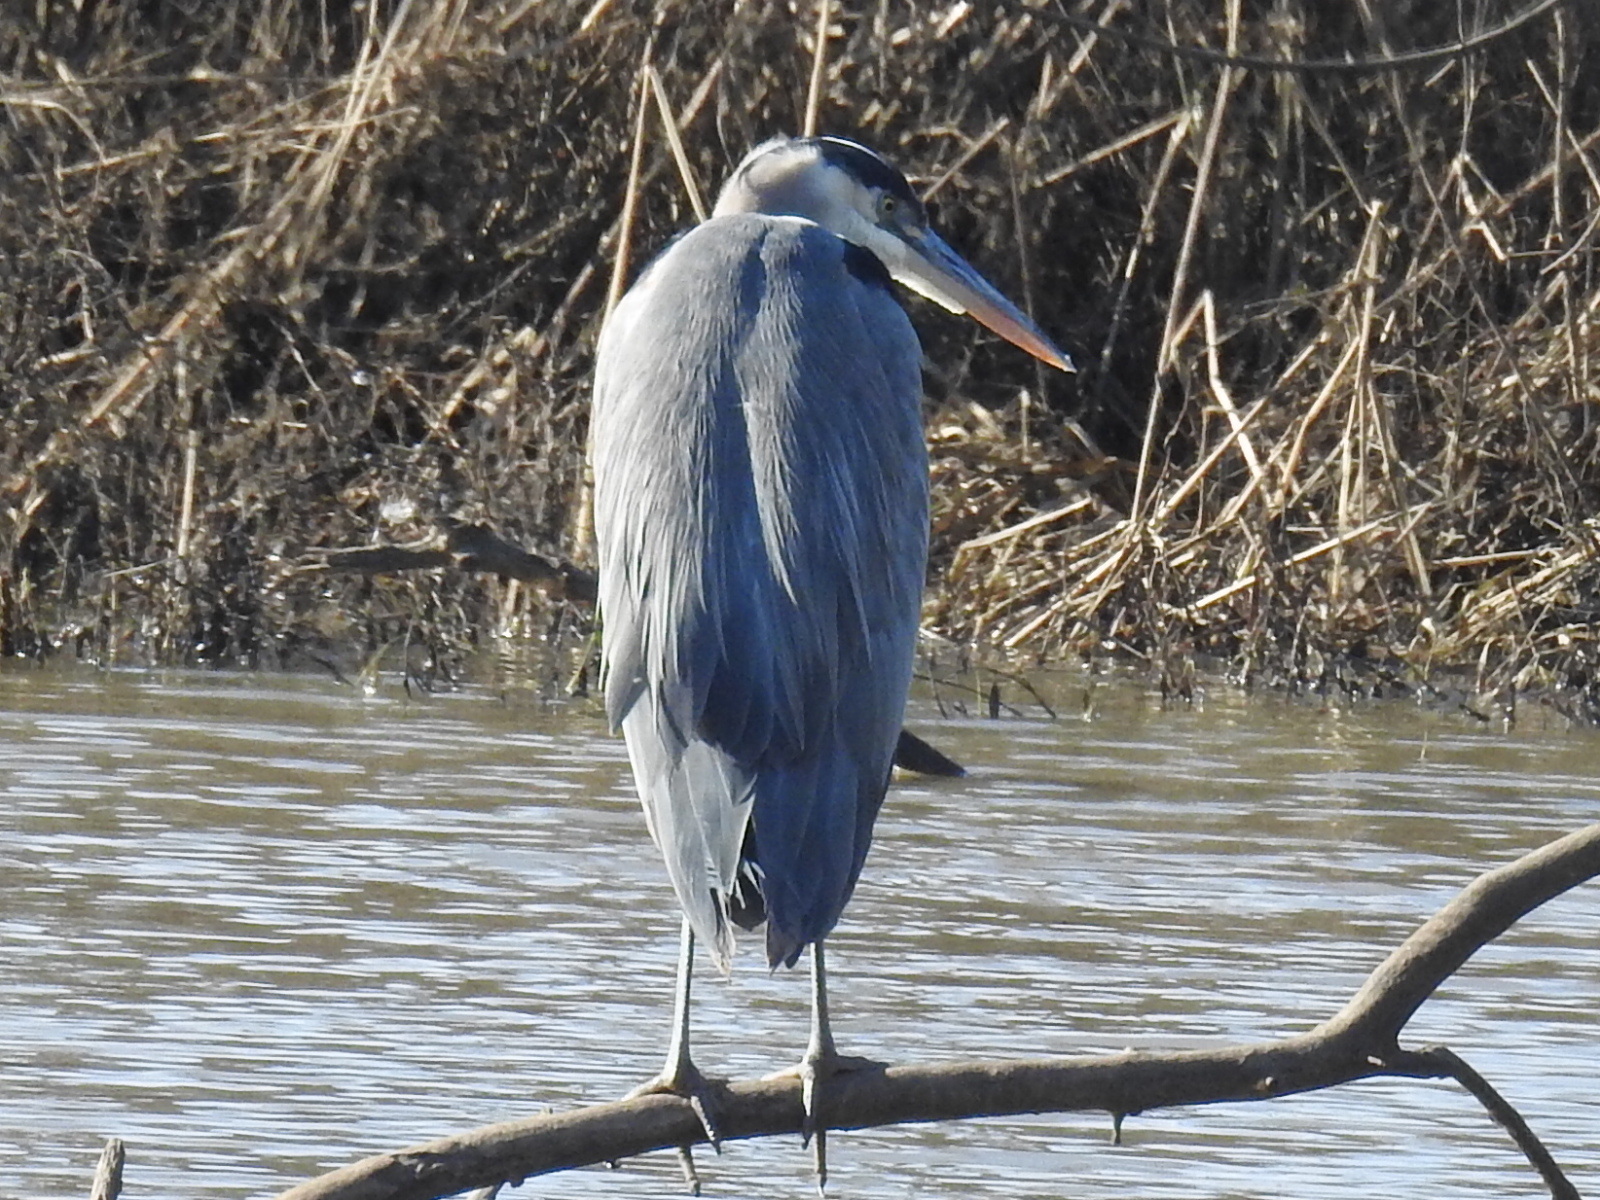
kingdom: Animalia
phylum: Chordata
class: Aves
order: Pelecaniformes
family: Ardeidae
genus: Ardea
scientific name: Ardea herodias
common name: Great blue heron
